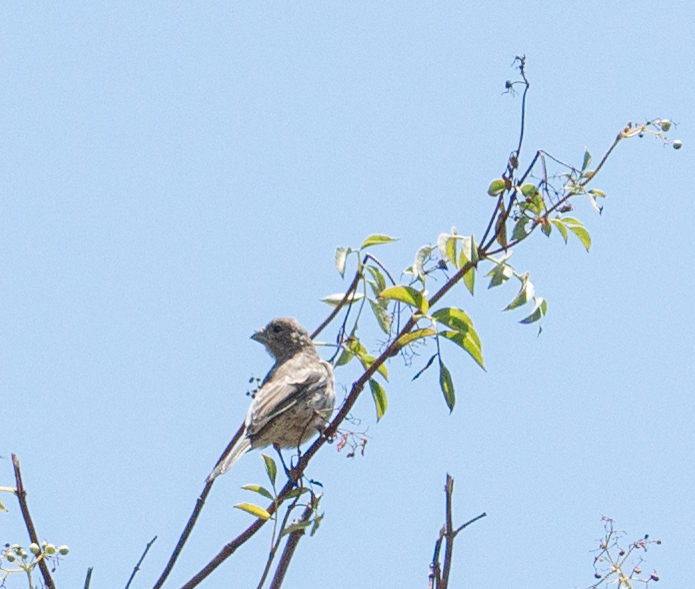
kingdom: Animalia
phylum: Chordata
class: Aves
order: Passeriformes
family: Fringillidae
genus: Haemorhous
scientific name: Haemorhous mexicanus
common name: House finch
